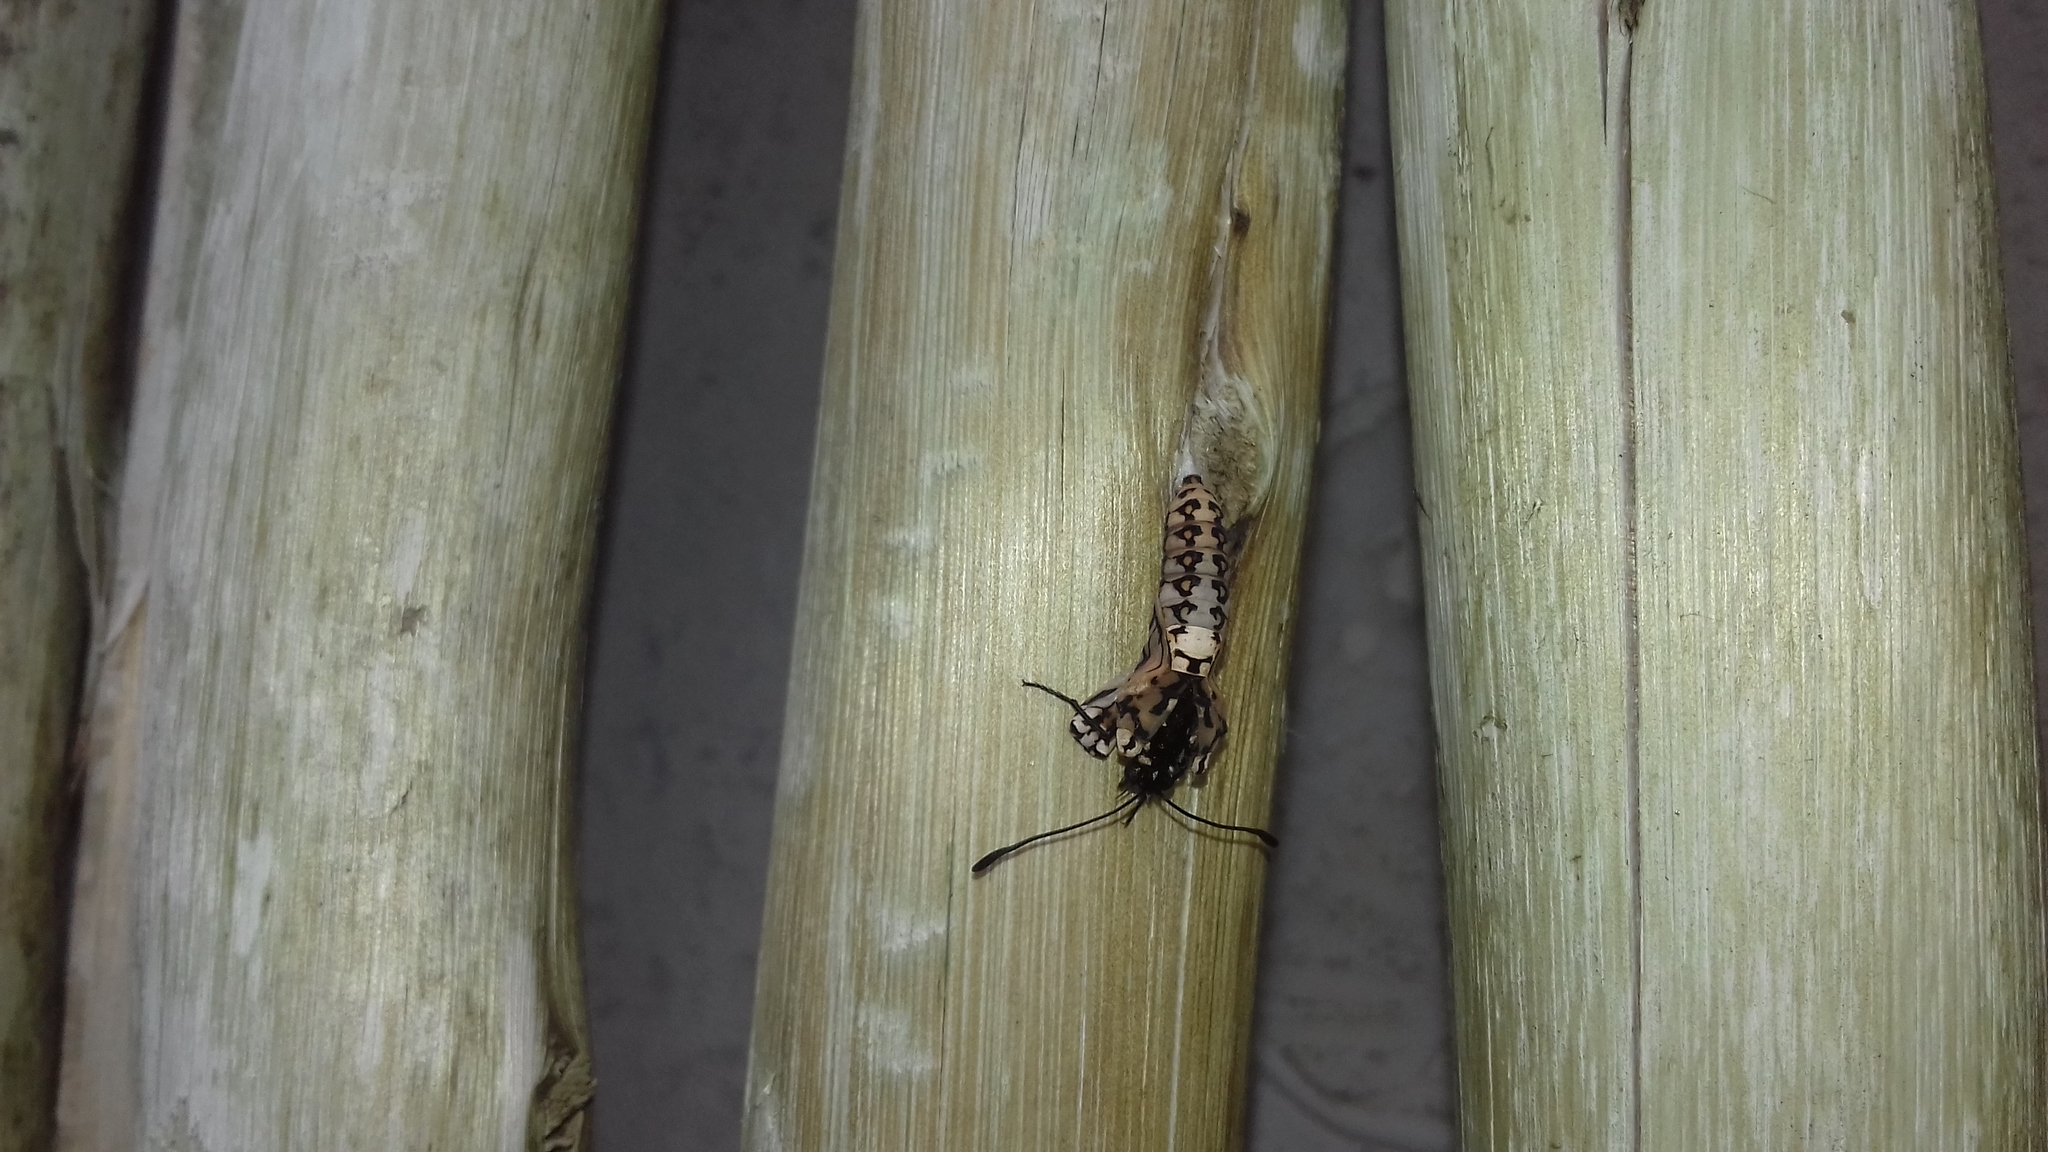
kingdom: Animalia
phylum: Arthropoda
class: Insecta
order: Lepidoptera
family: Nymphalidae
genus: Acraea
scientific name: Acraea horta
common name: Garden acraea
